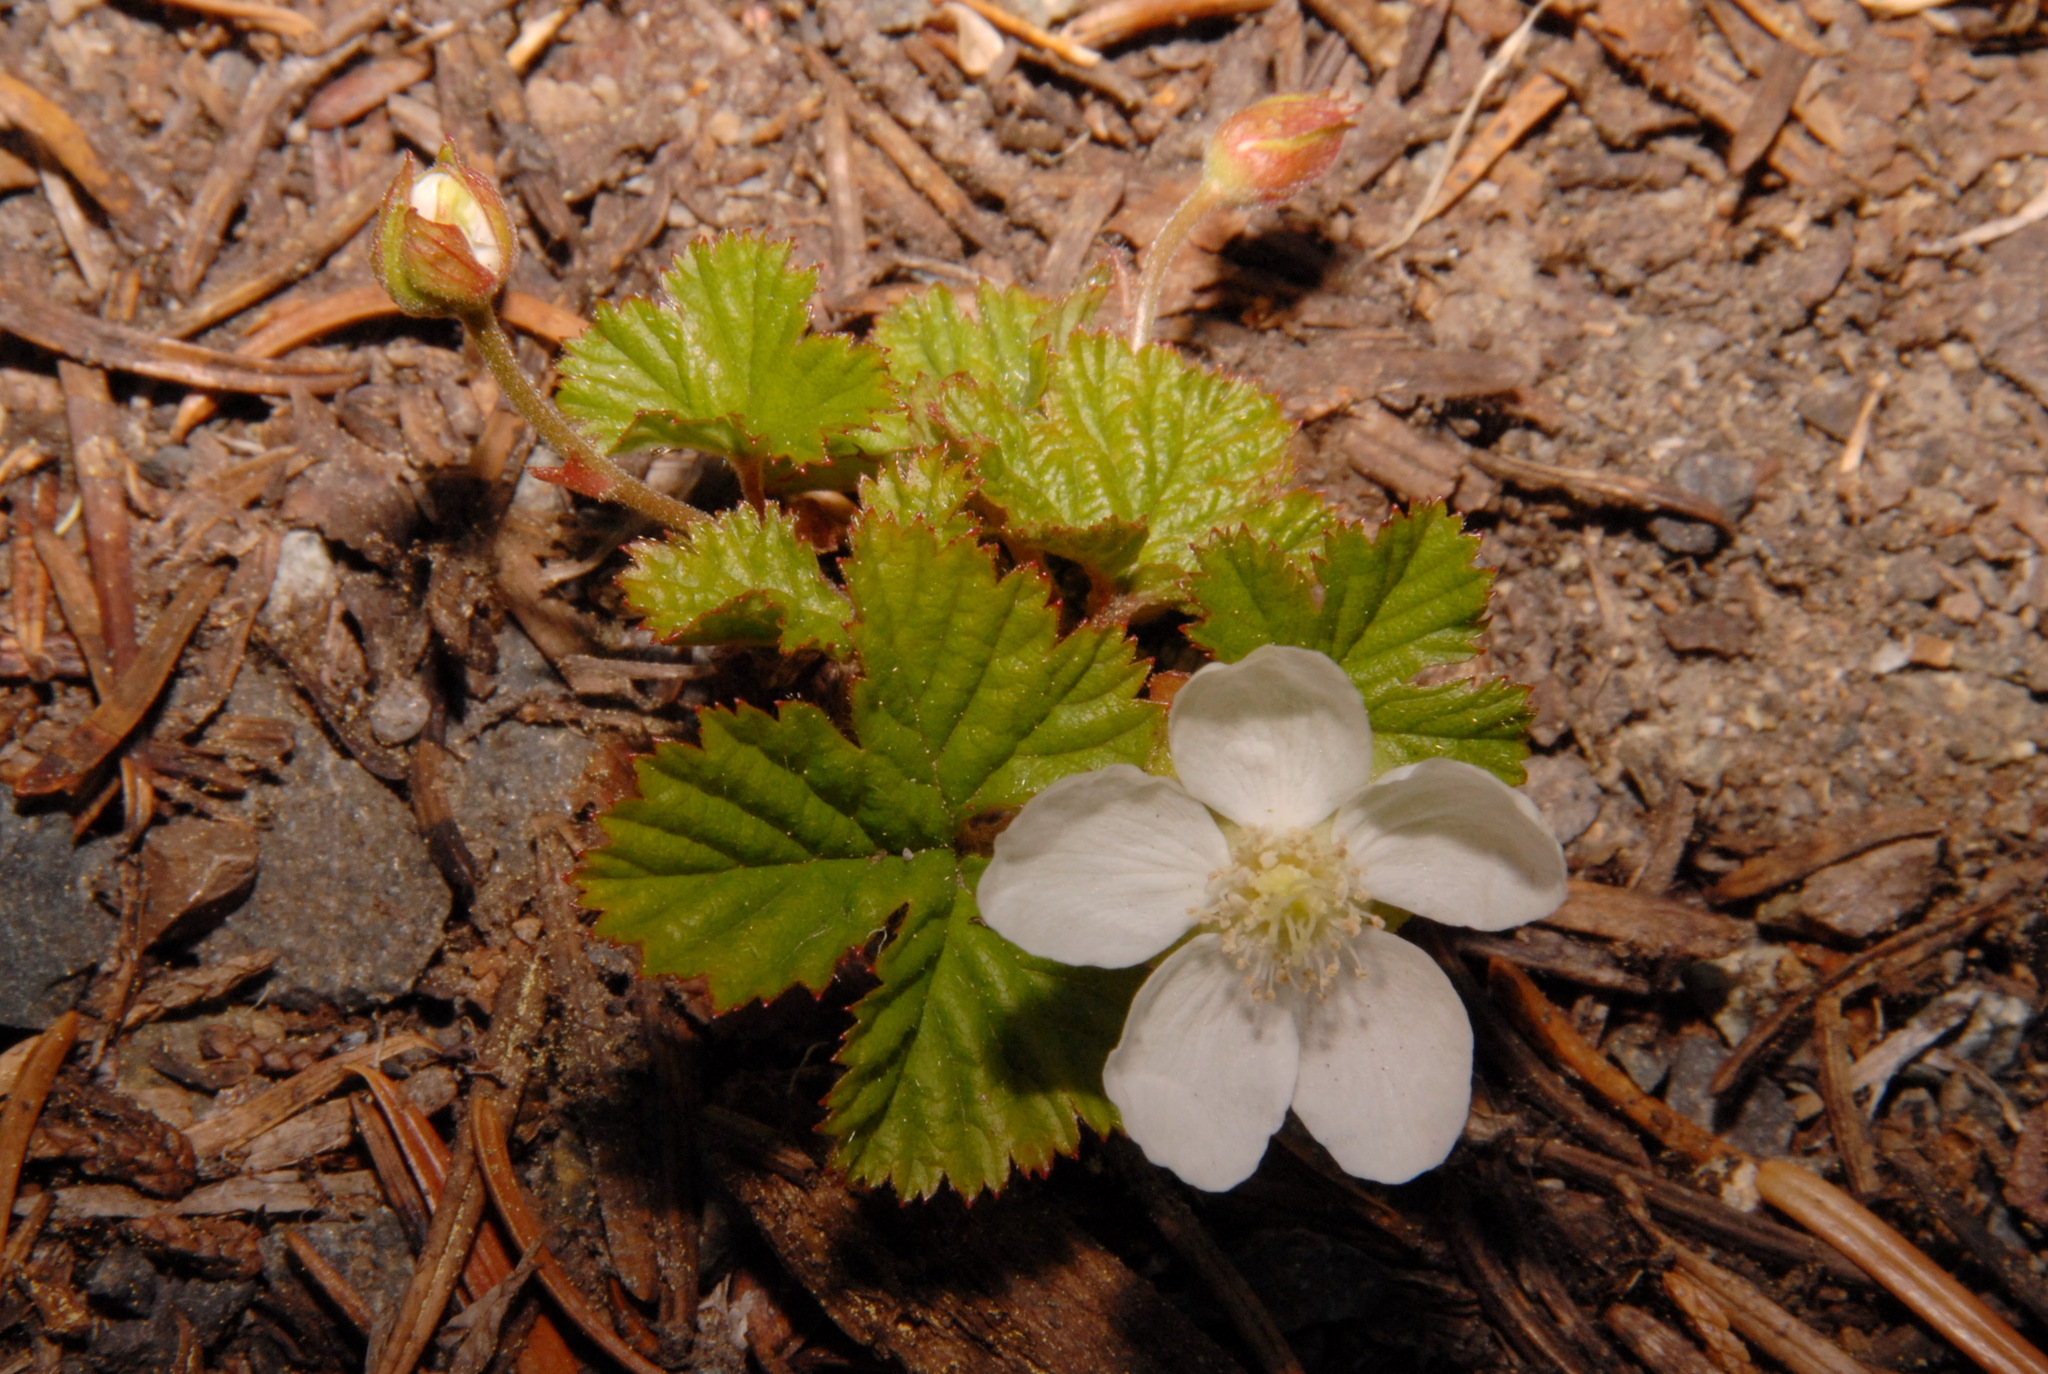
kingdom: Plantae
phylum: Tracheophyta
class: Magnoliopsida
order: Rosales
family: Rosaceae
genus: Rubus
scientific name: Rubus lasiococcus
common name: Dwarf bramble
